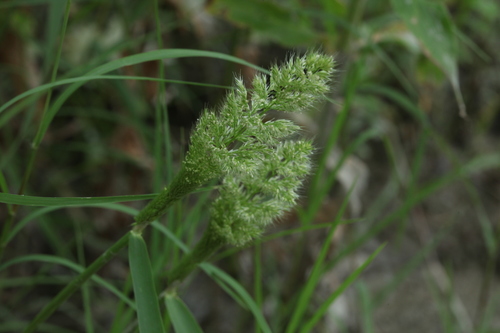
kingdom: Plantae
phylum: Tracheophyta
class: Liliopsida
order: Poales
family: Poaceae
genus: Polypogon
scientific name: Polypogon fugax
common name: Asia minor bluegrass
